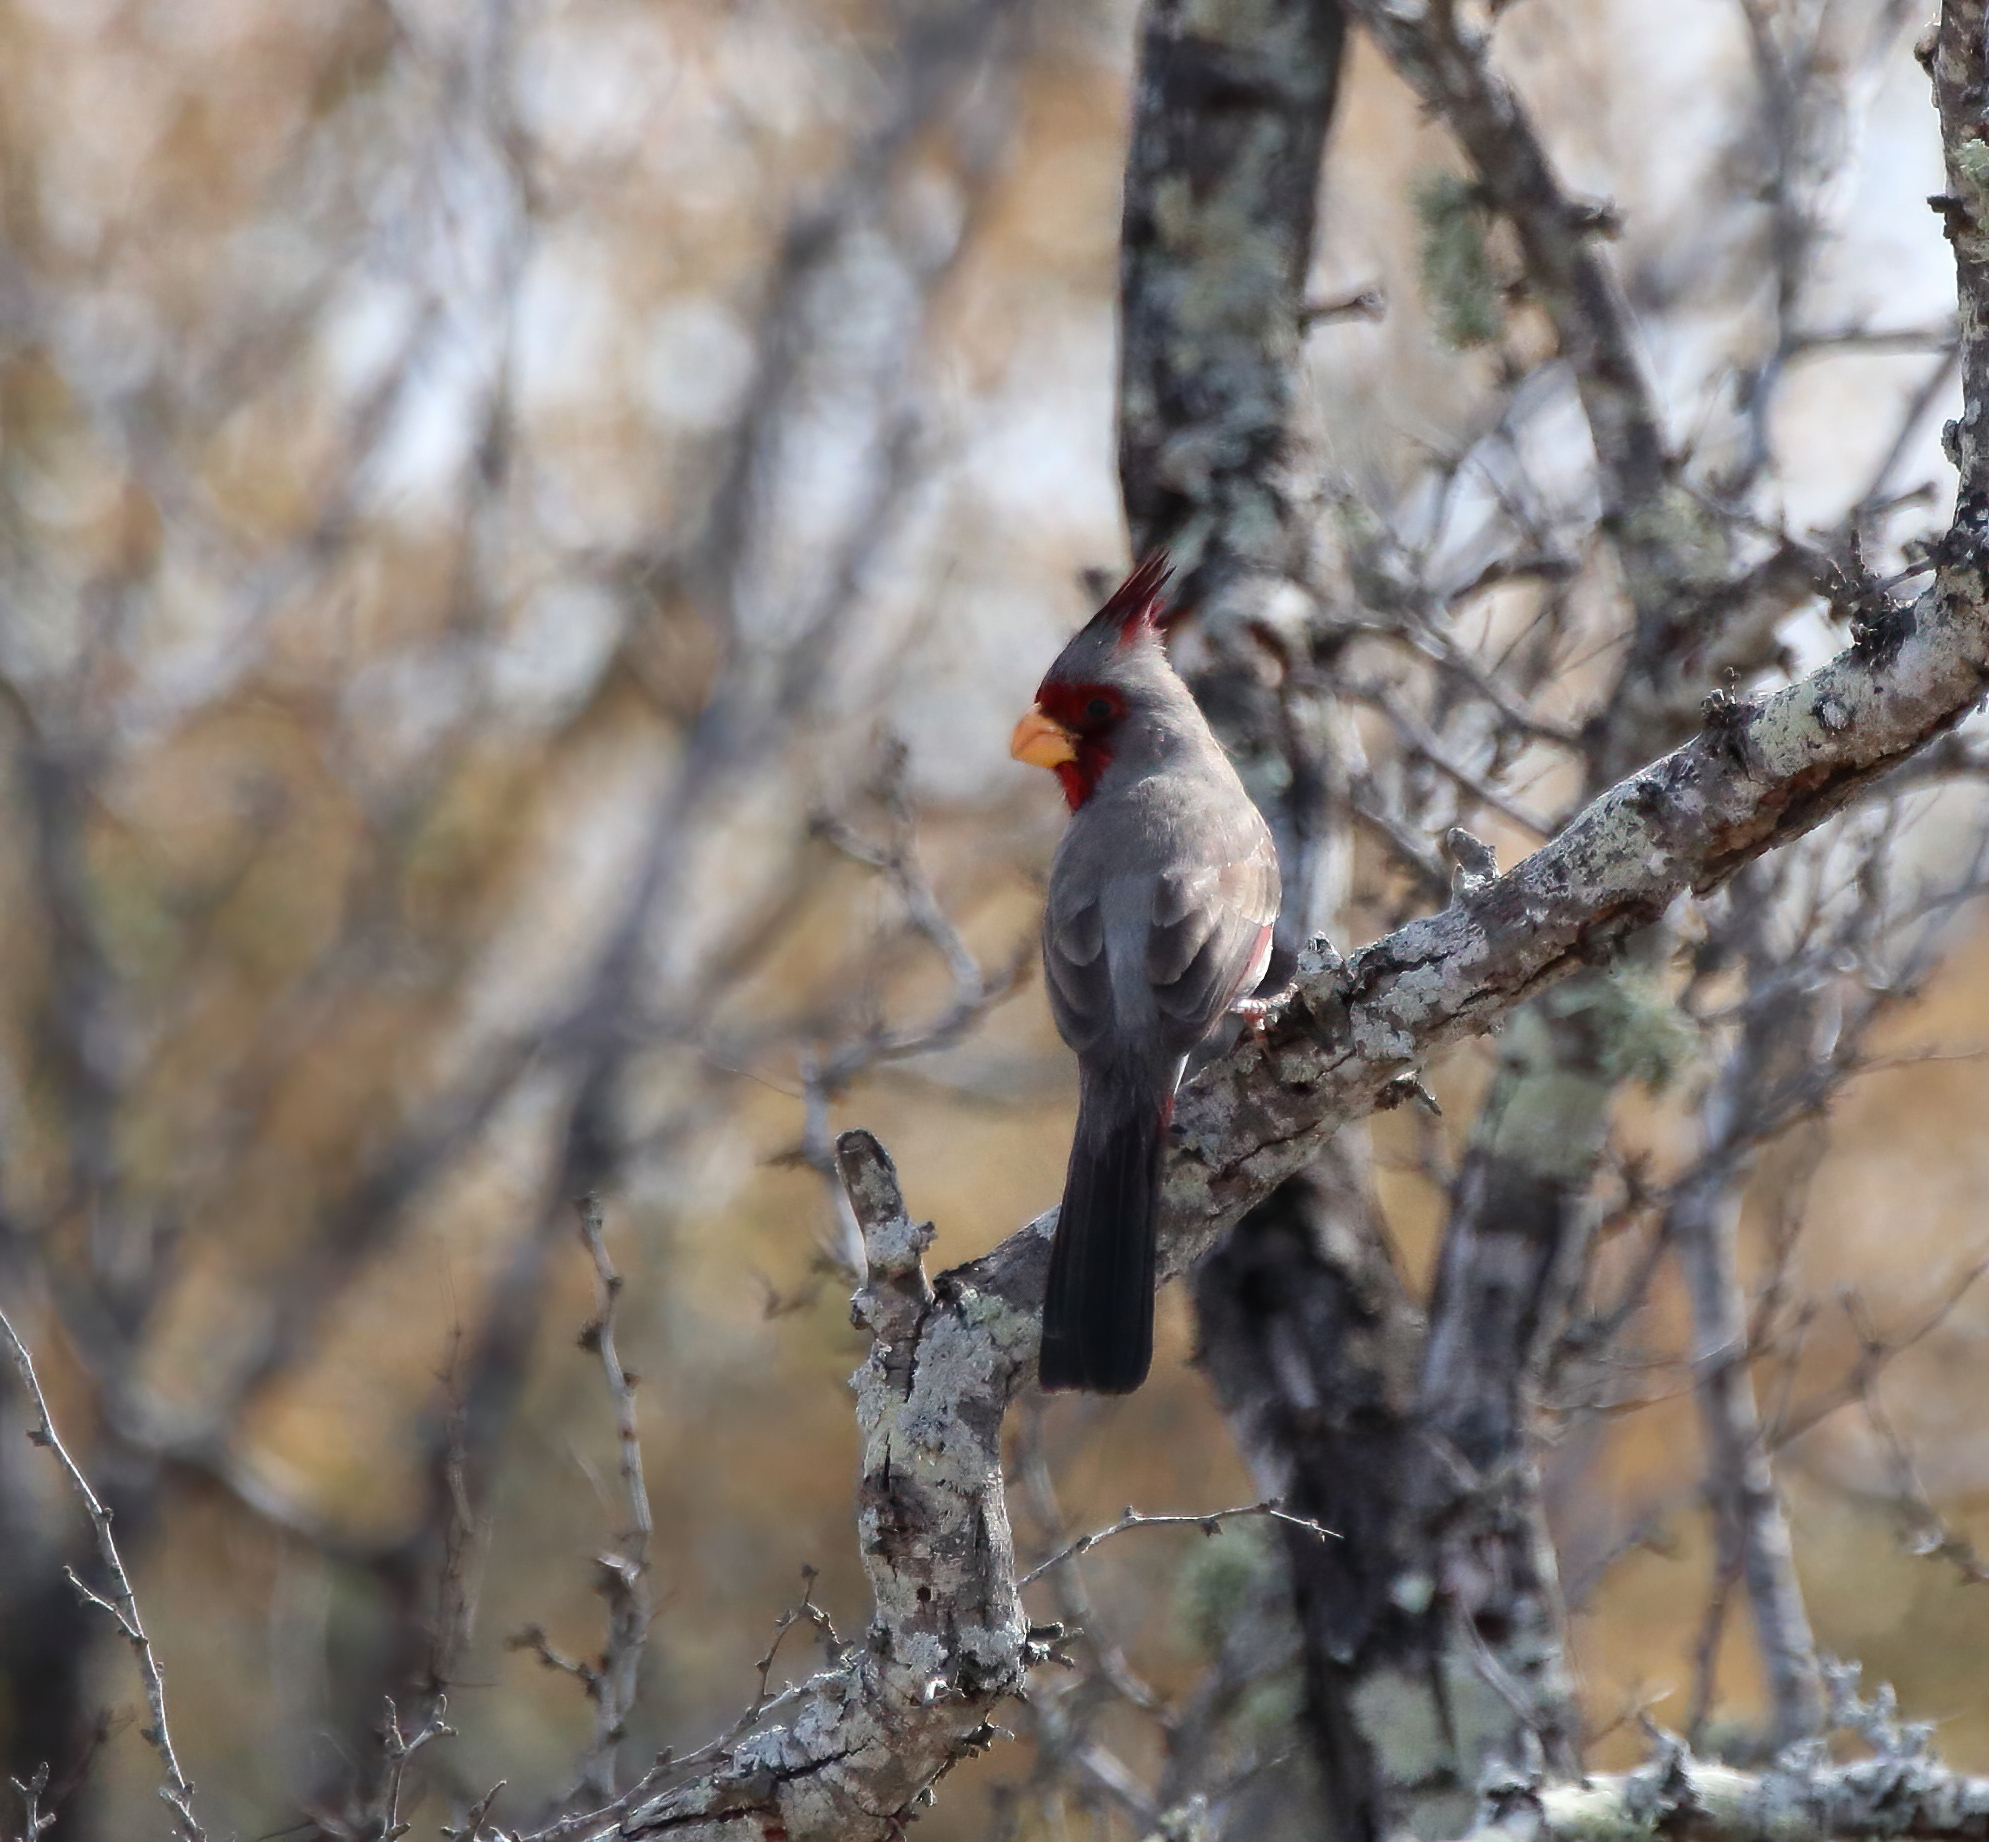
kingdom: Animalia
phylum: Chordata
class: Aves
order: Passeriformes
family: Cardinalidae
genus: Cardinalis
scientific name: Cardinalis sinuatus
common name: Pyrrhuloxia
